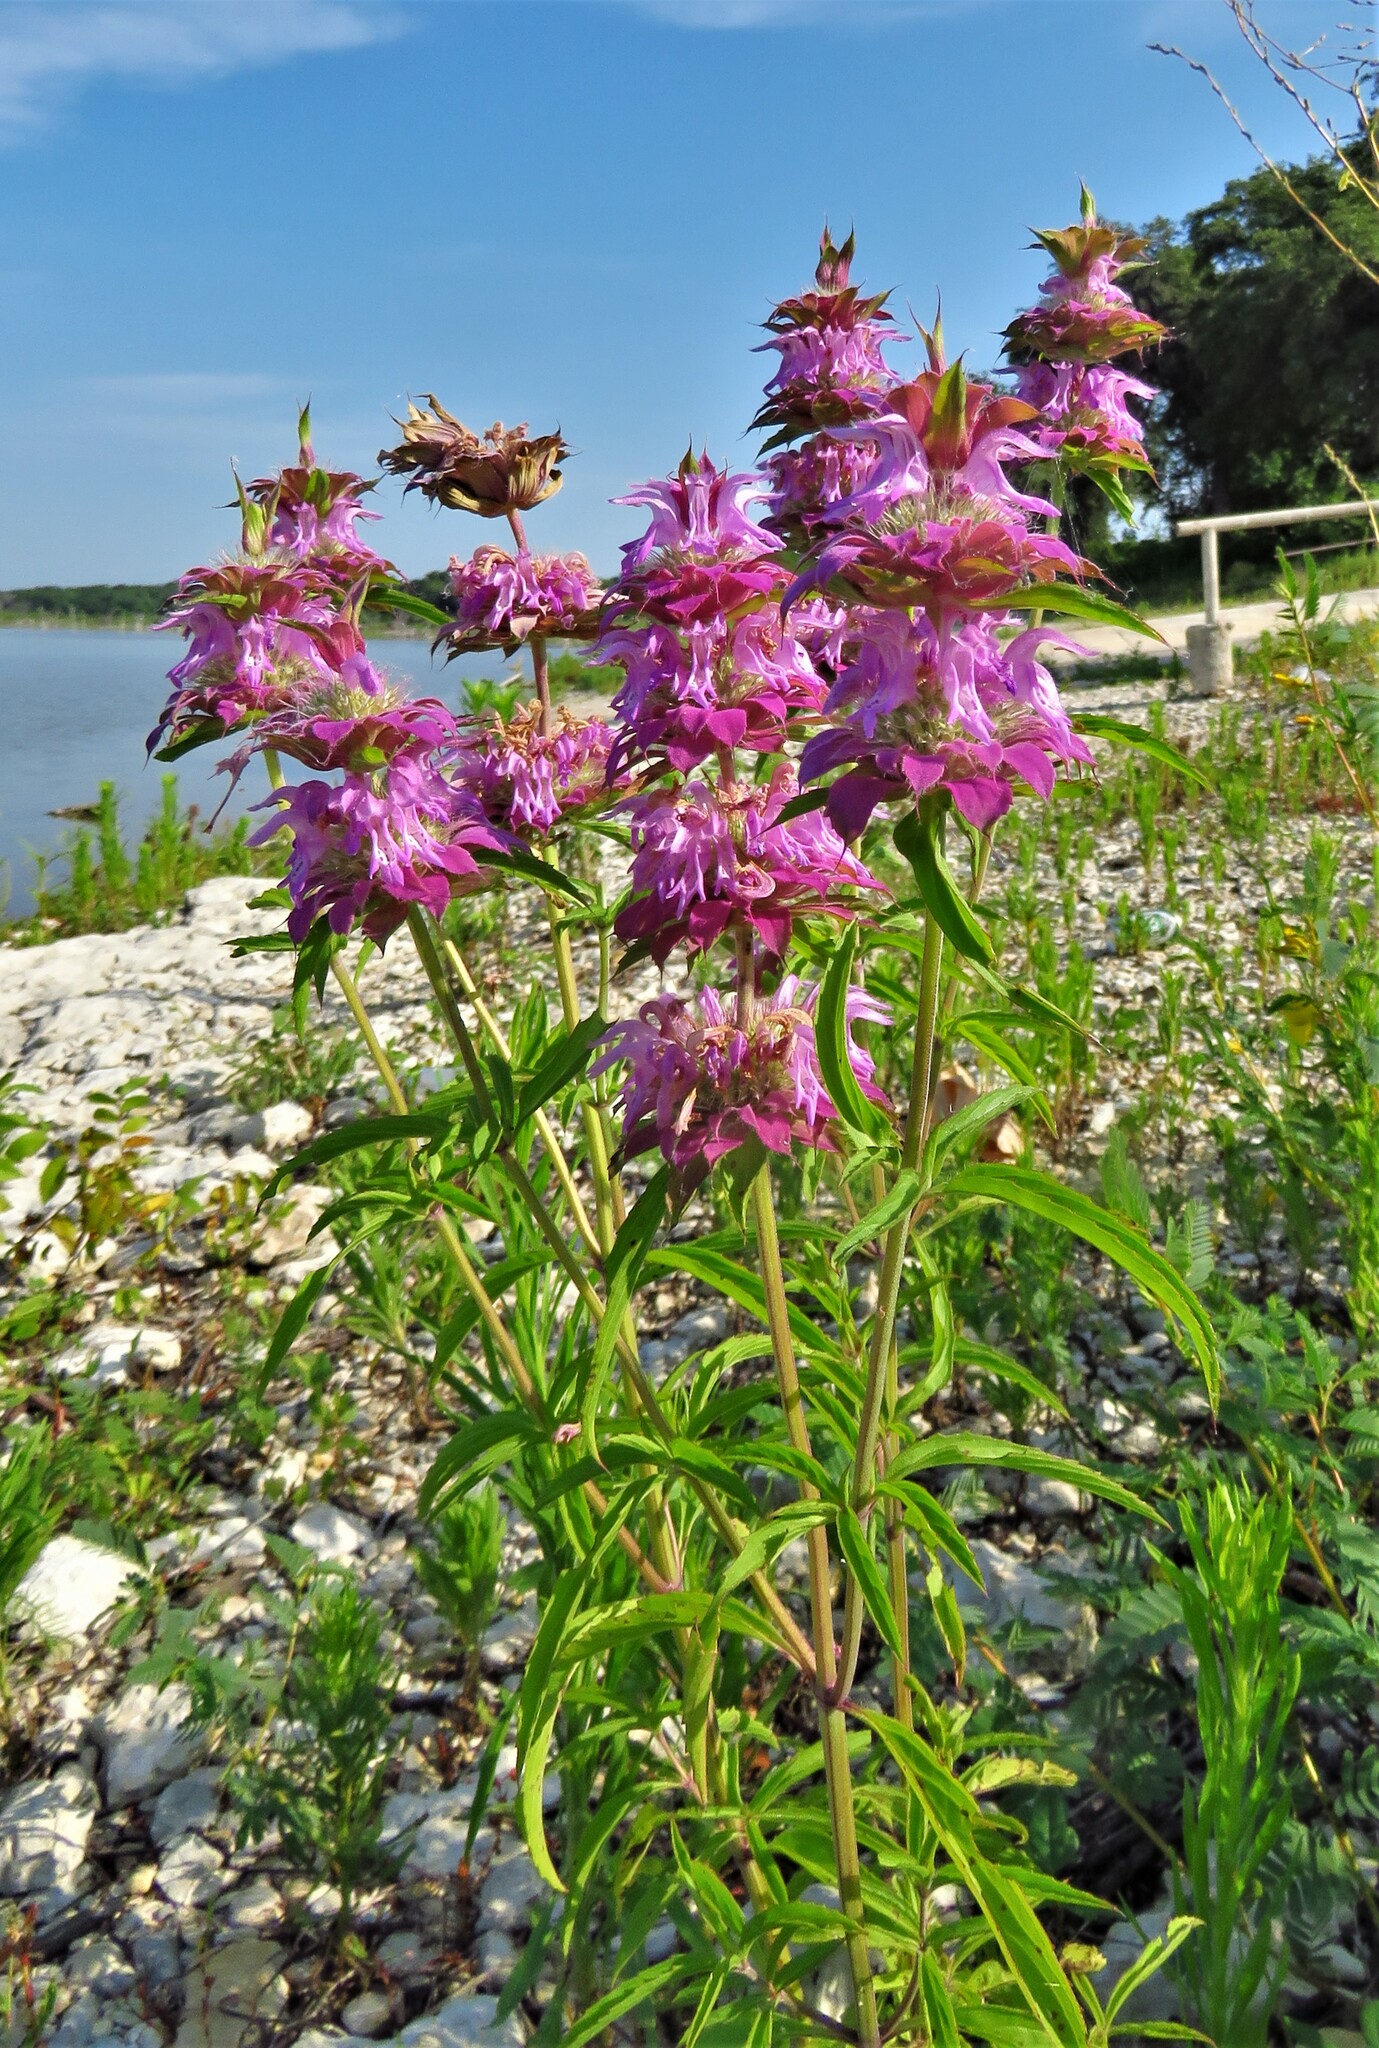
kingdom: Plantae
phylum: Tracheophyta
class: Magnoliopsida
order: Lamiales
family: Lamiaceae
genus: Monarda
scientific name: Monarda citriodora
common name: Lemon beebalm
